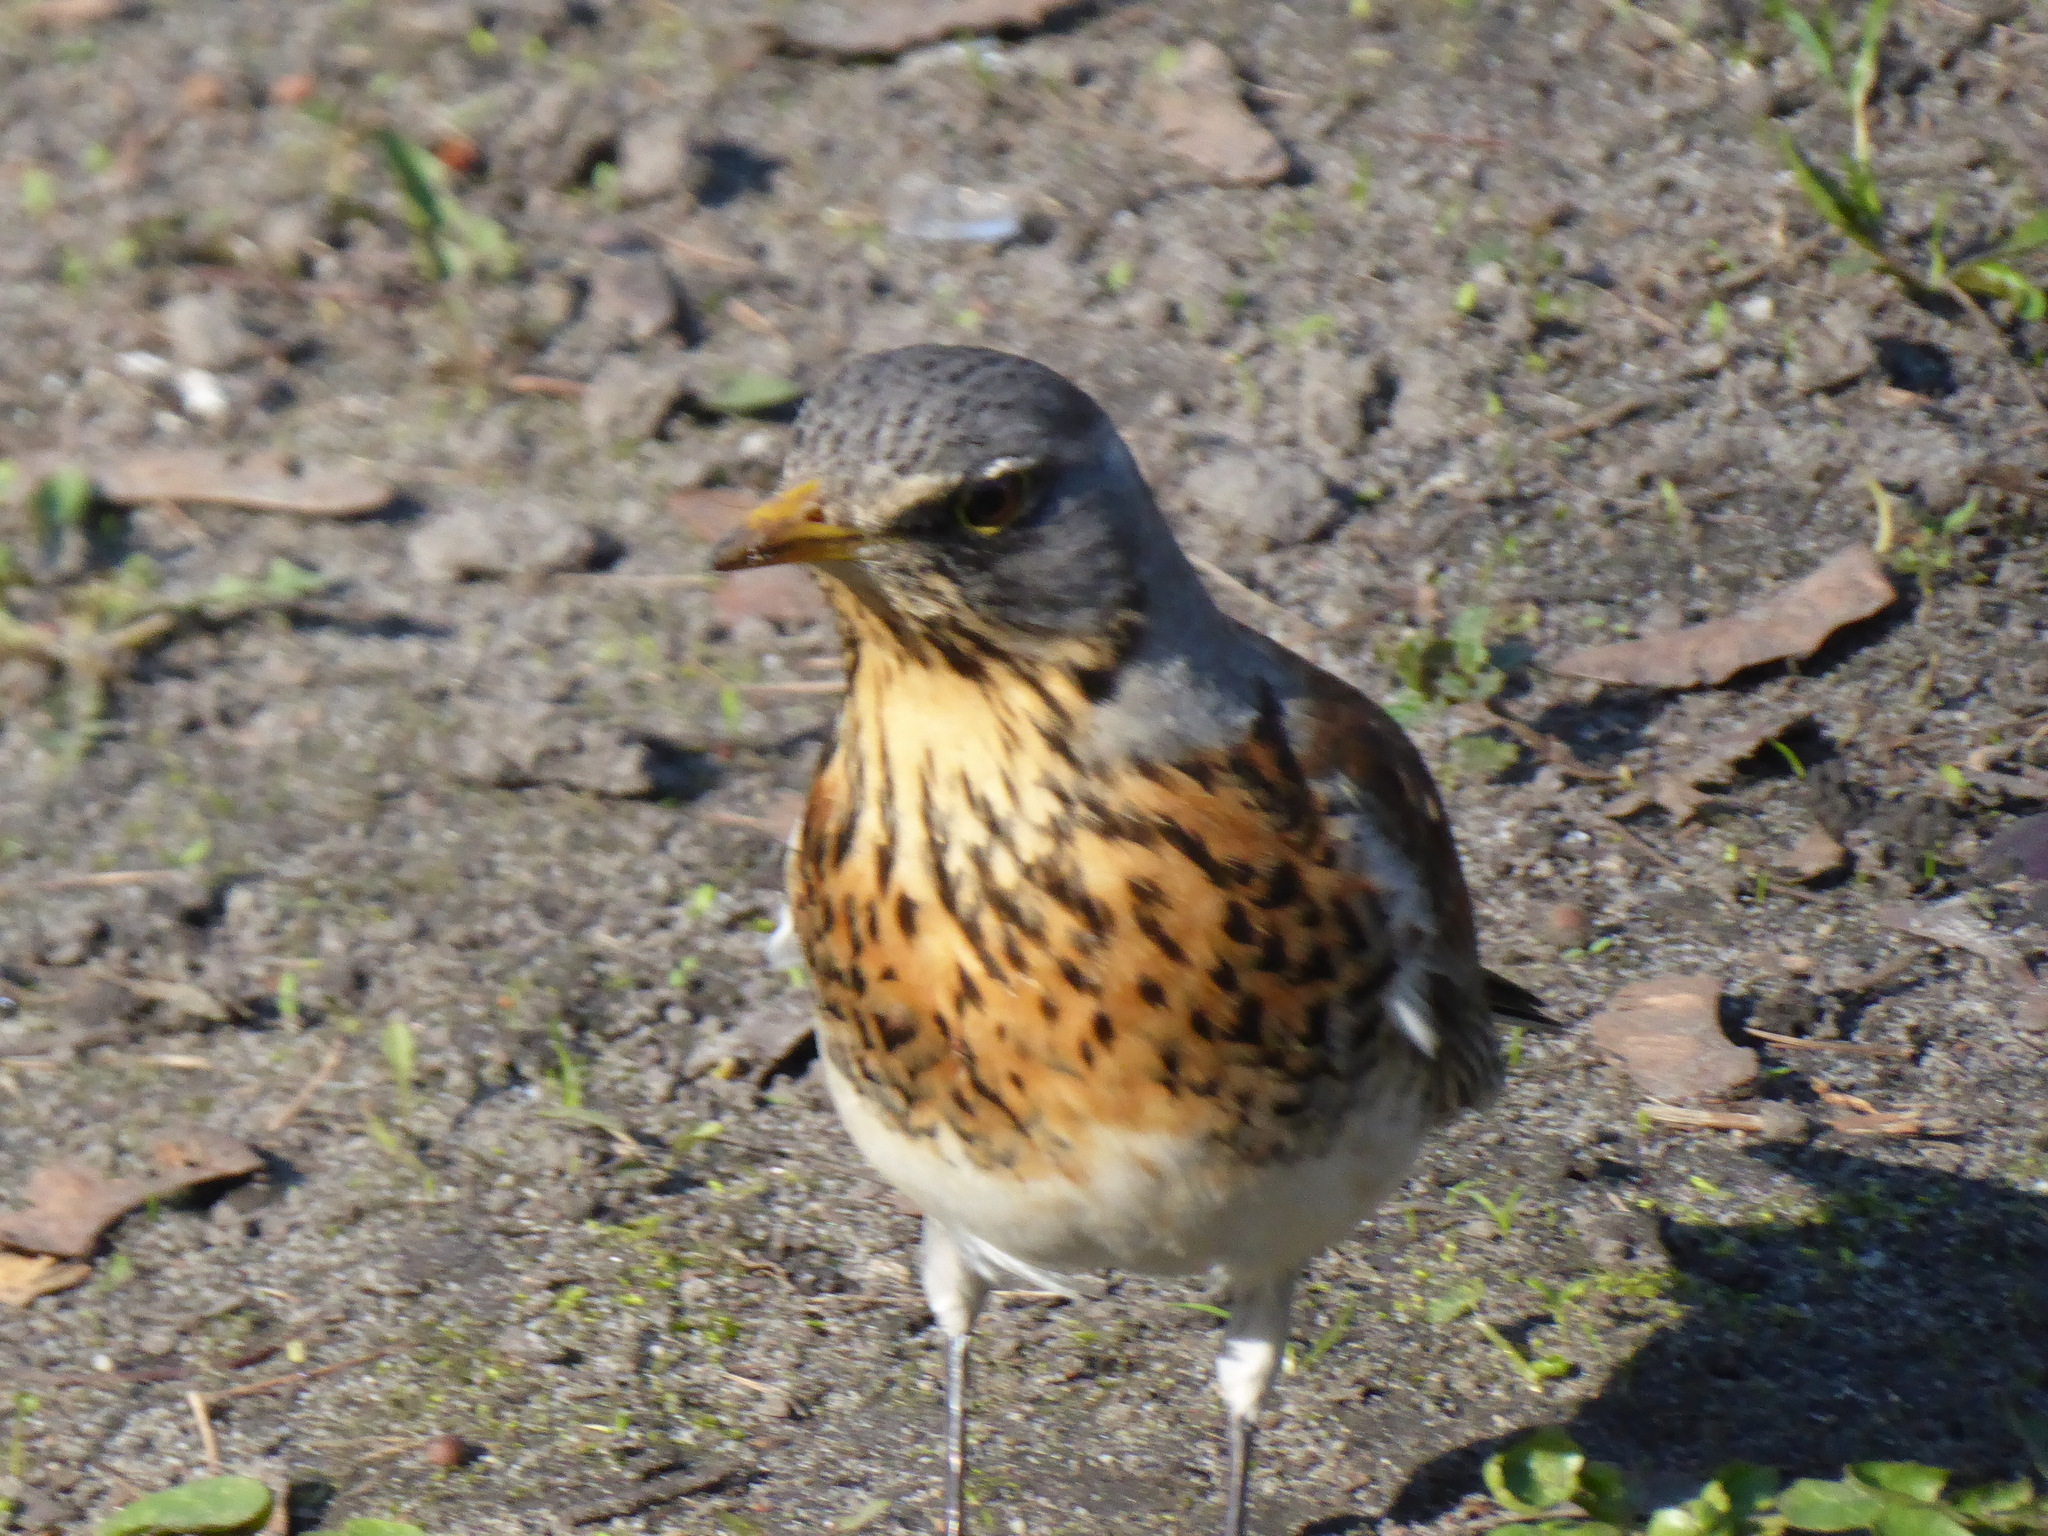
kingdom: Animalia
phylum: Chordata
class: Aves
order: Passeriformes
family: Turdidae
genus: Turdus
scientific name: Turdus pilaris
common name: Fieldfare
